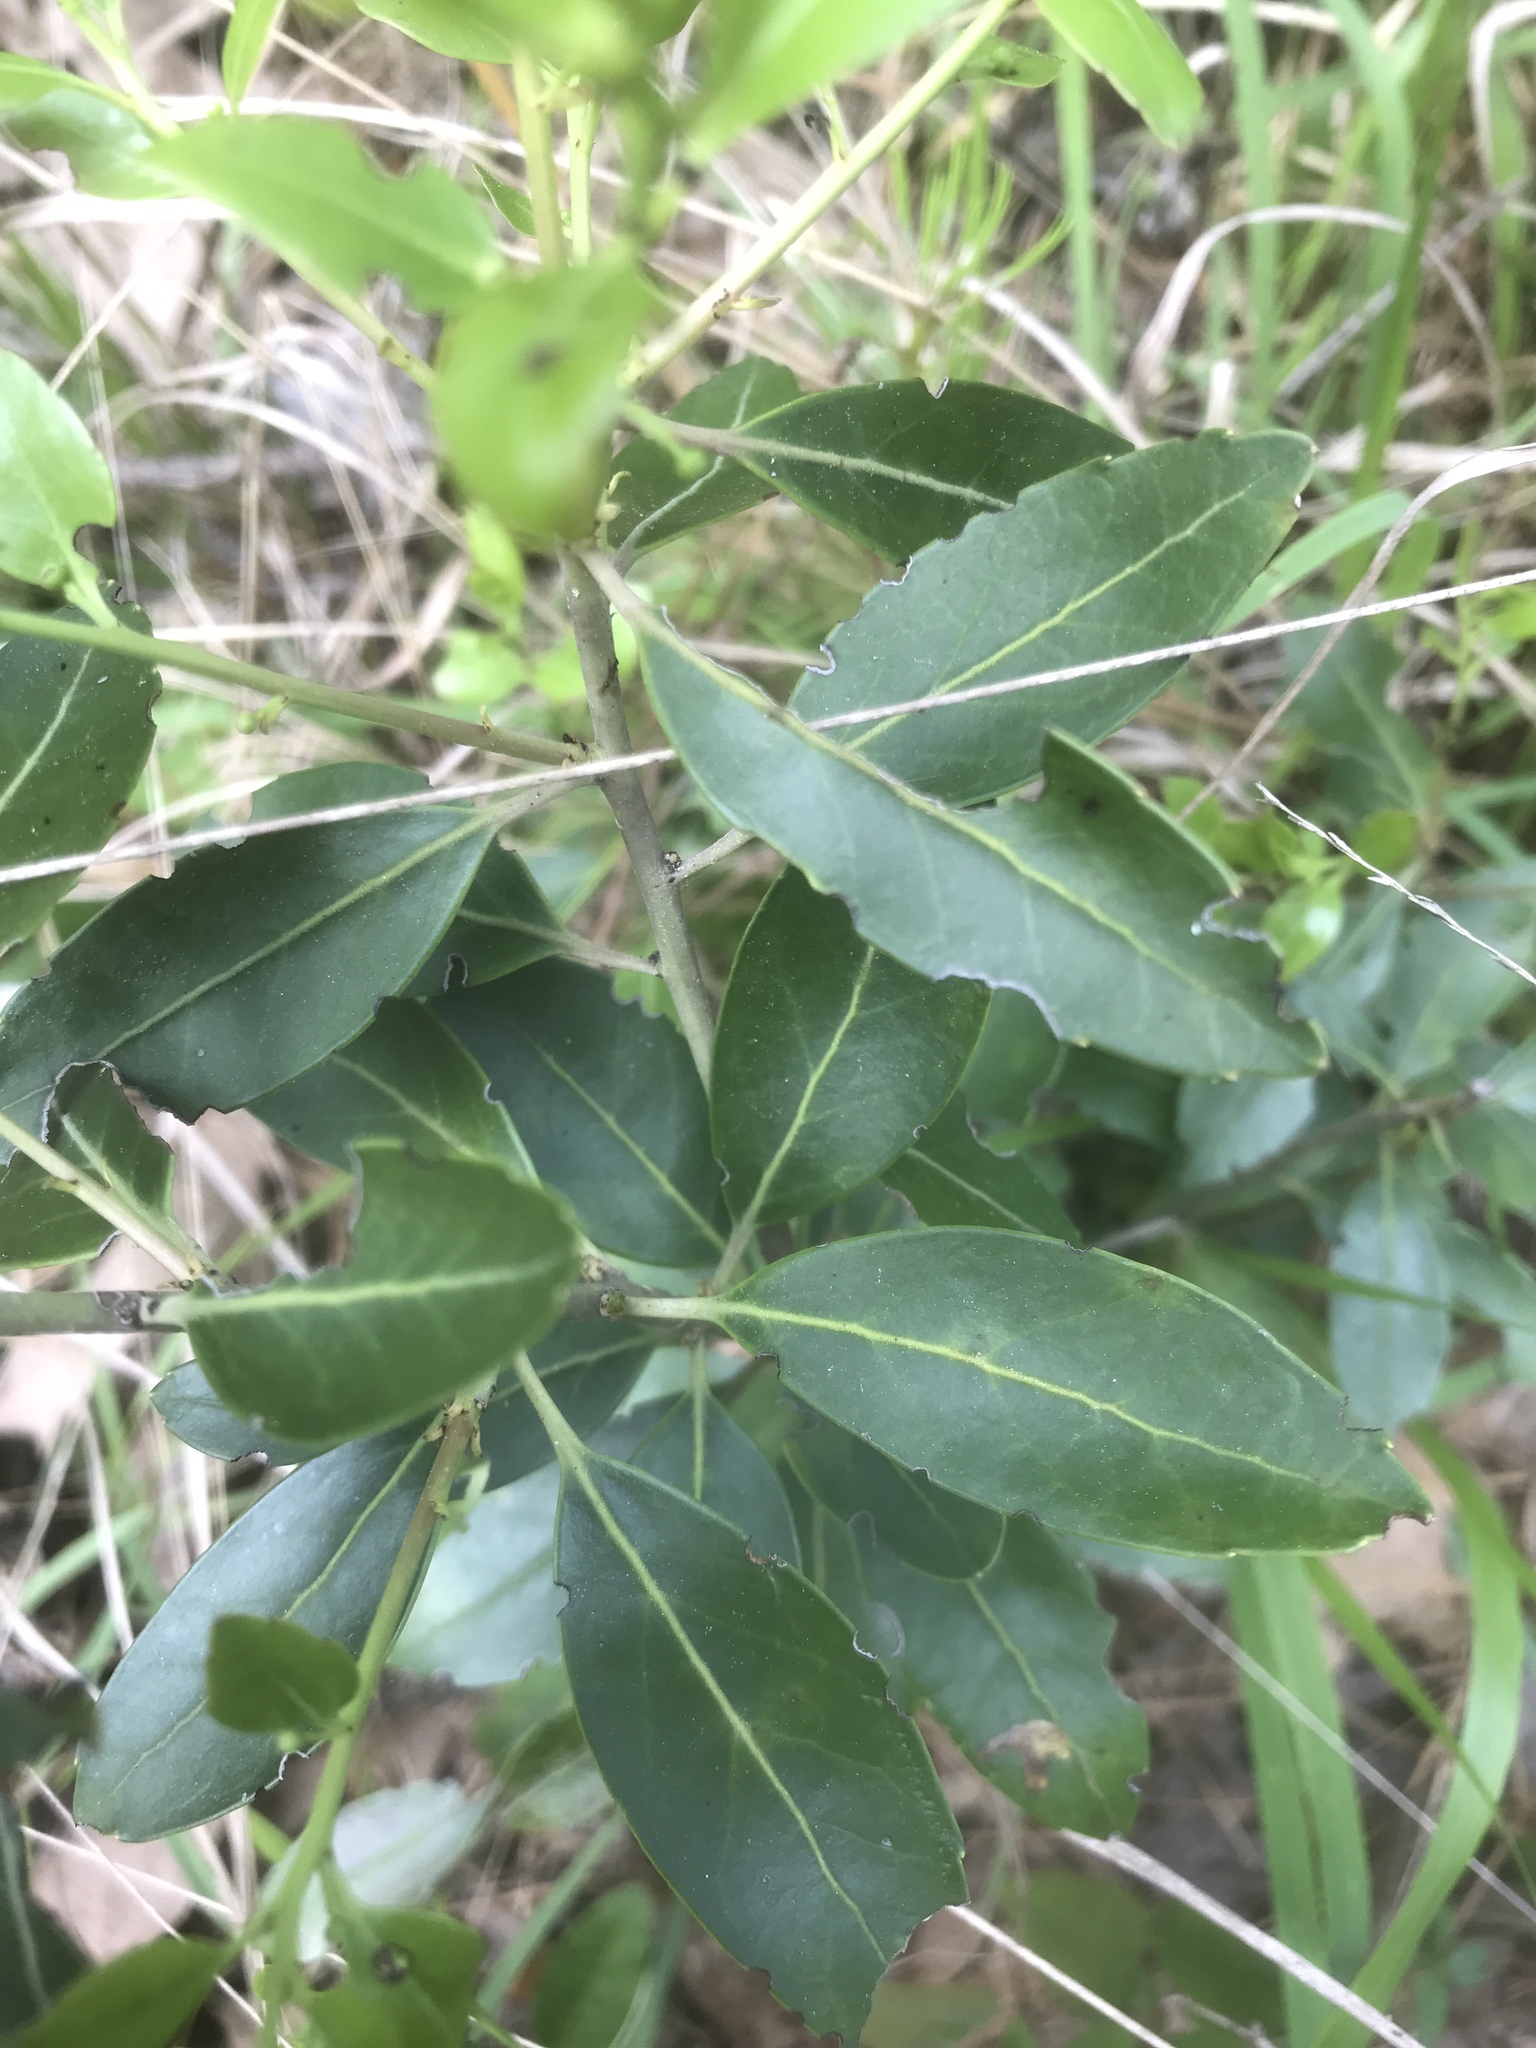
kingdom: Plantae
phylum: Tracheophyta
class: Magnoliopsida
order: Aquifoliales
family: Aquifoliaceae
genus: Ilex
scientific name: Ilex glabra
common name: Bitter gallberry
